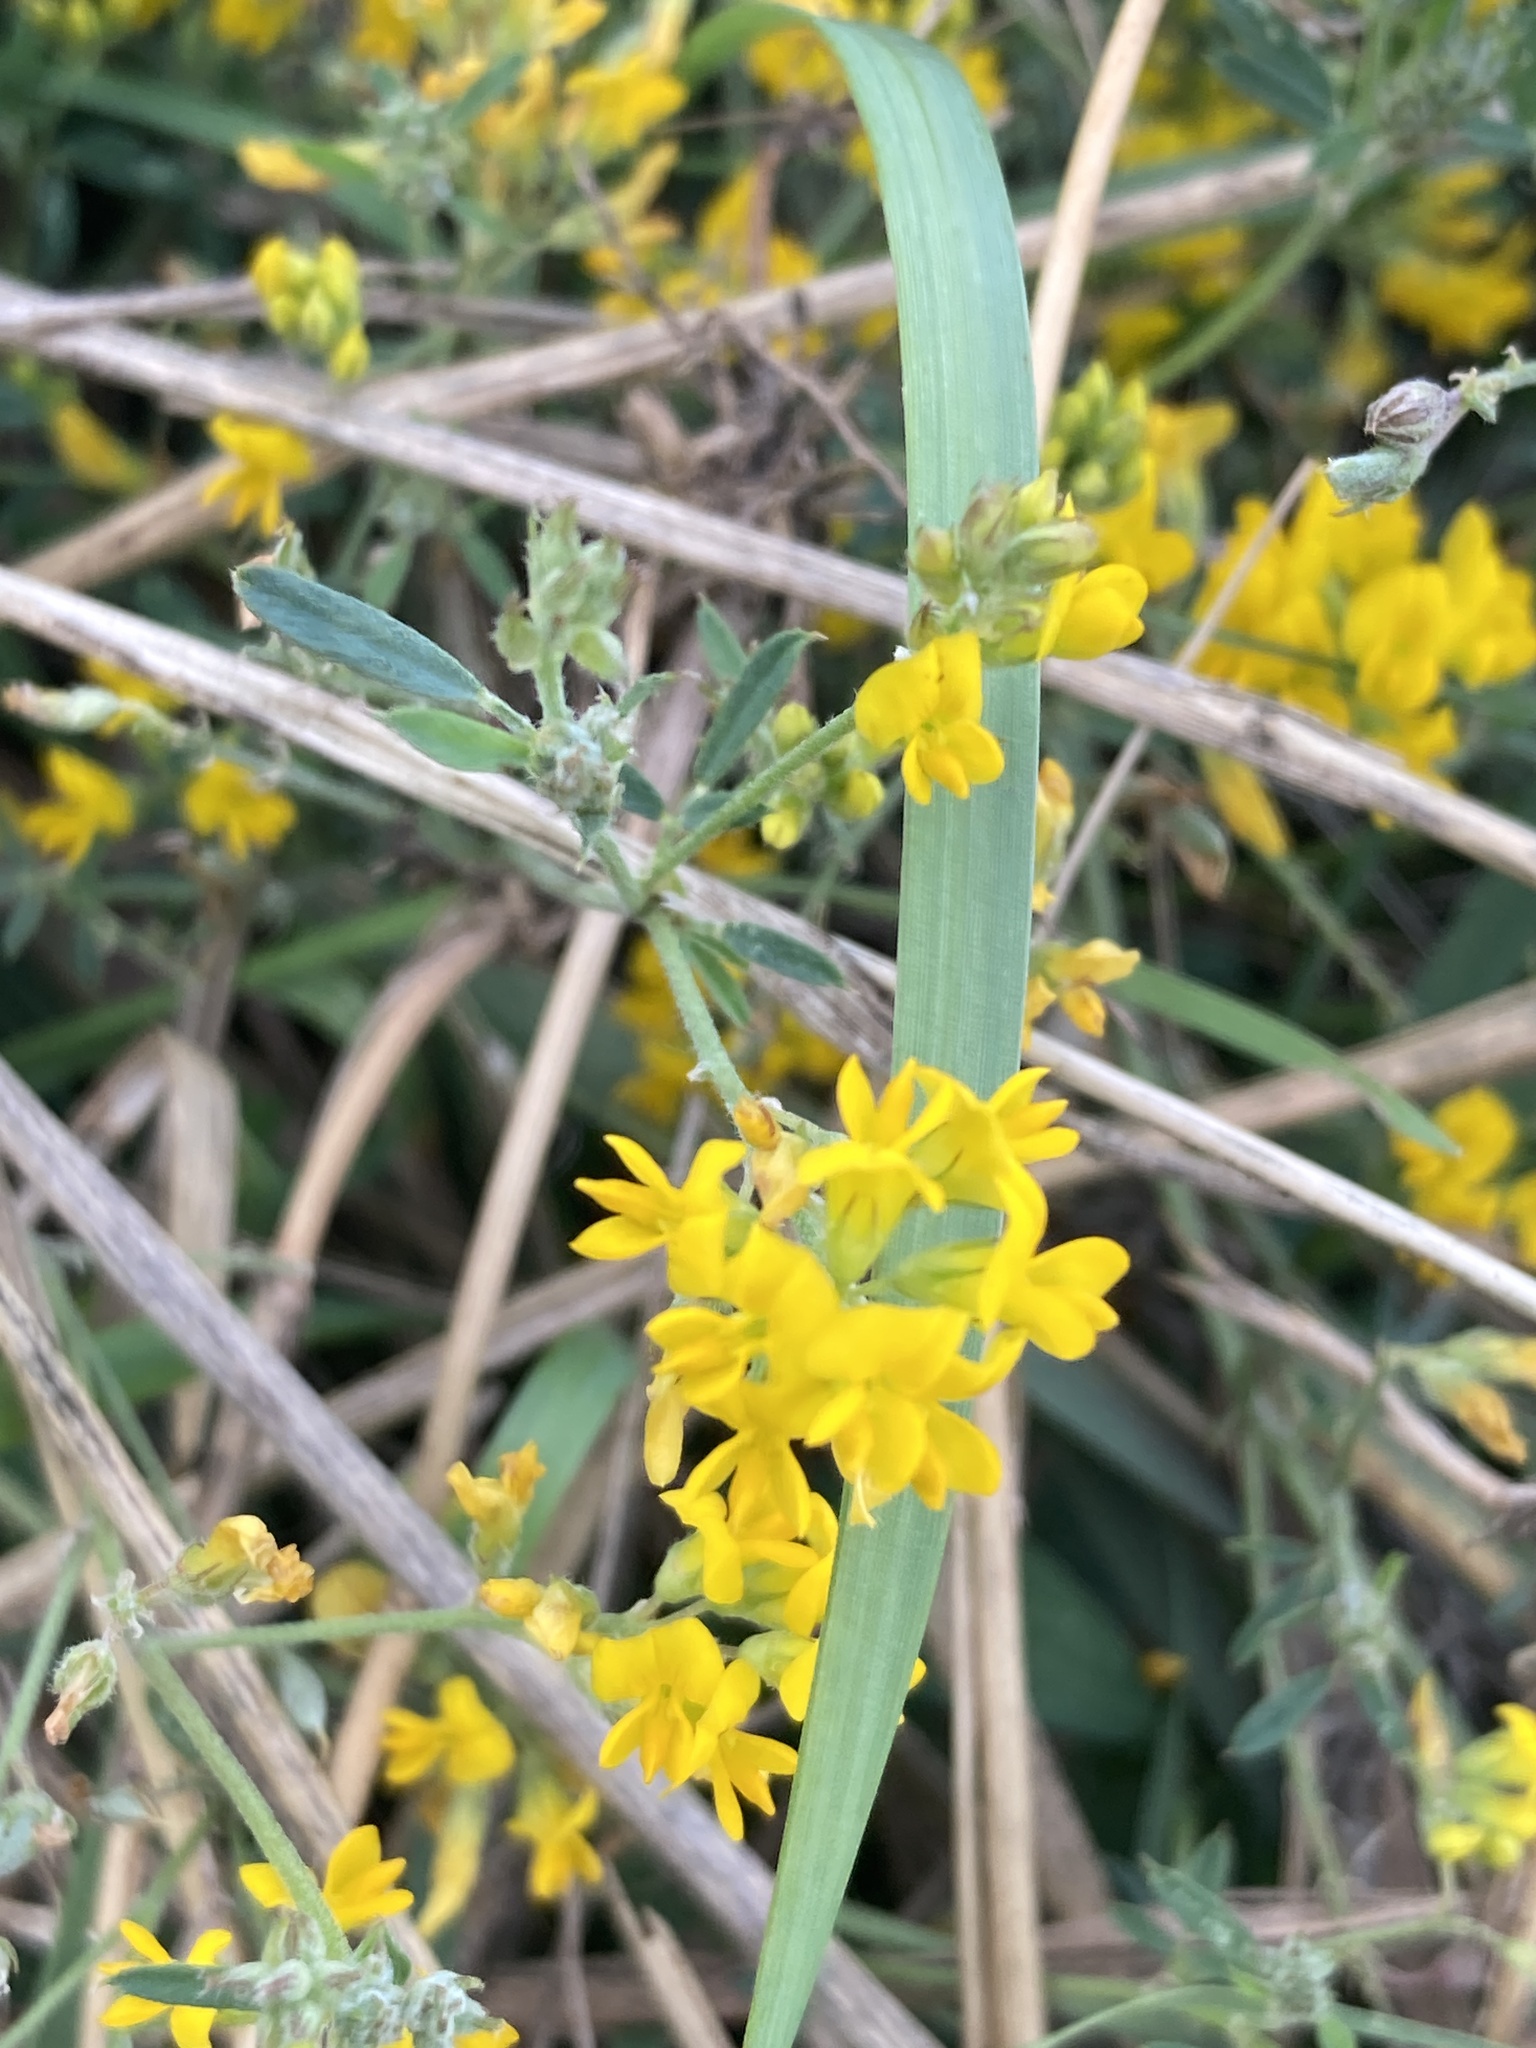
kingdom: Plantae
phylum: Tracheophyta
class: Magnoliopsida
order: Fabales
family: Fabaceae
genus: Medicago
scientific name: Medicago falcata
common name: Sickle medick
